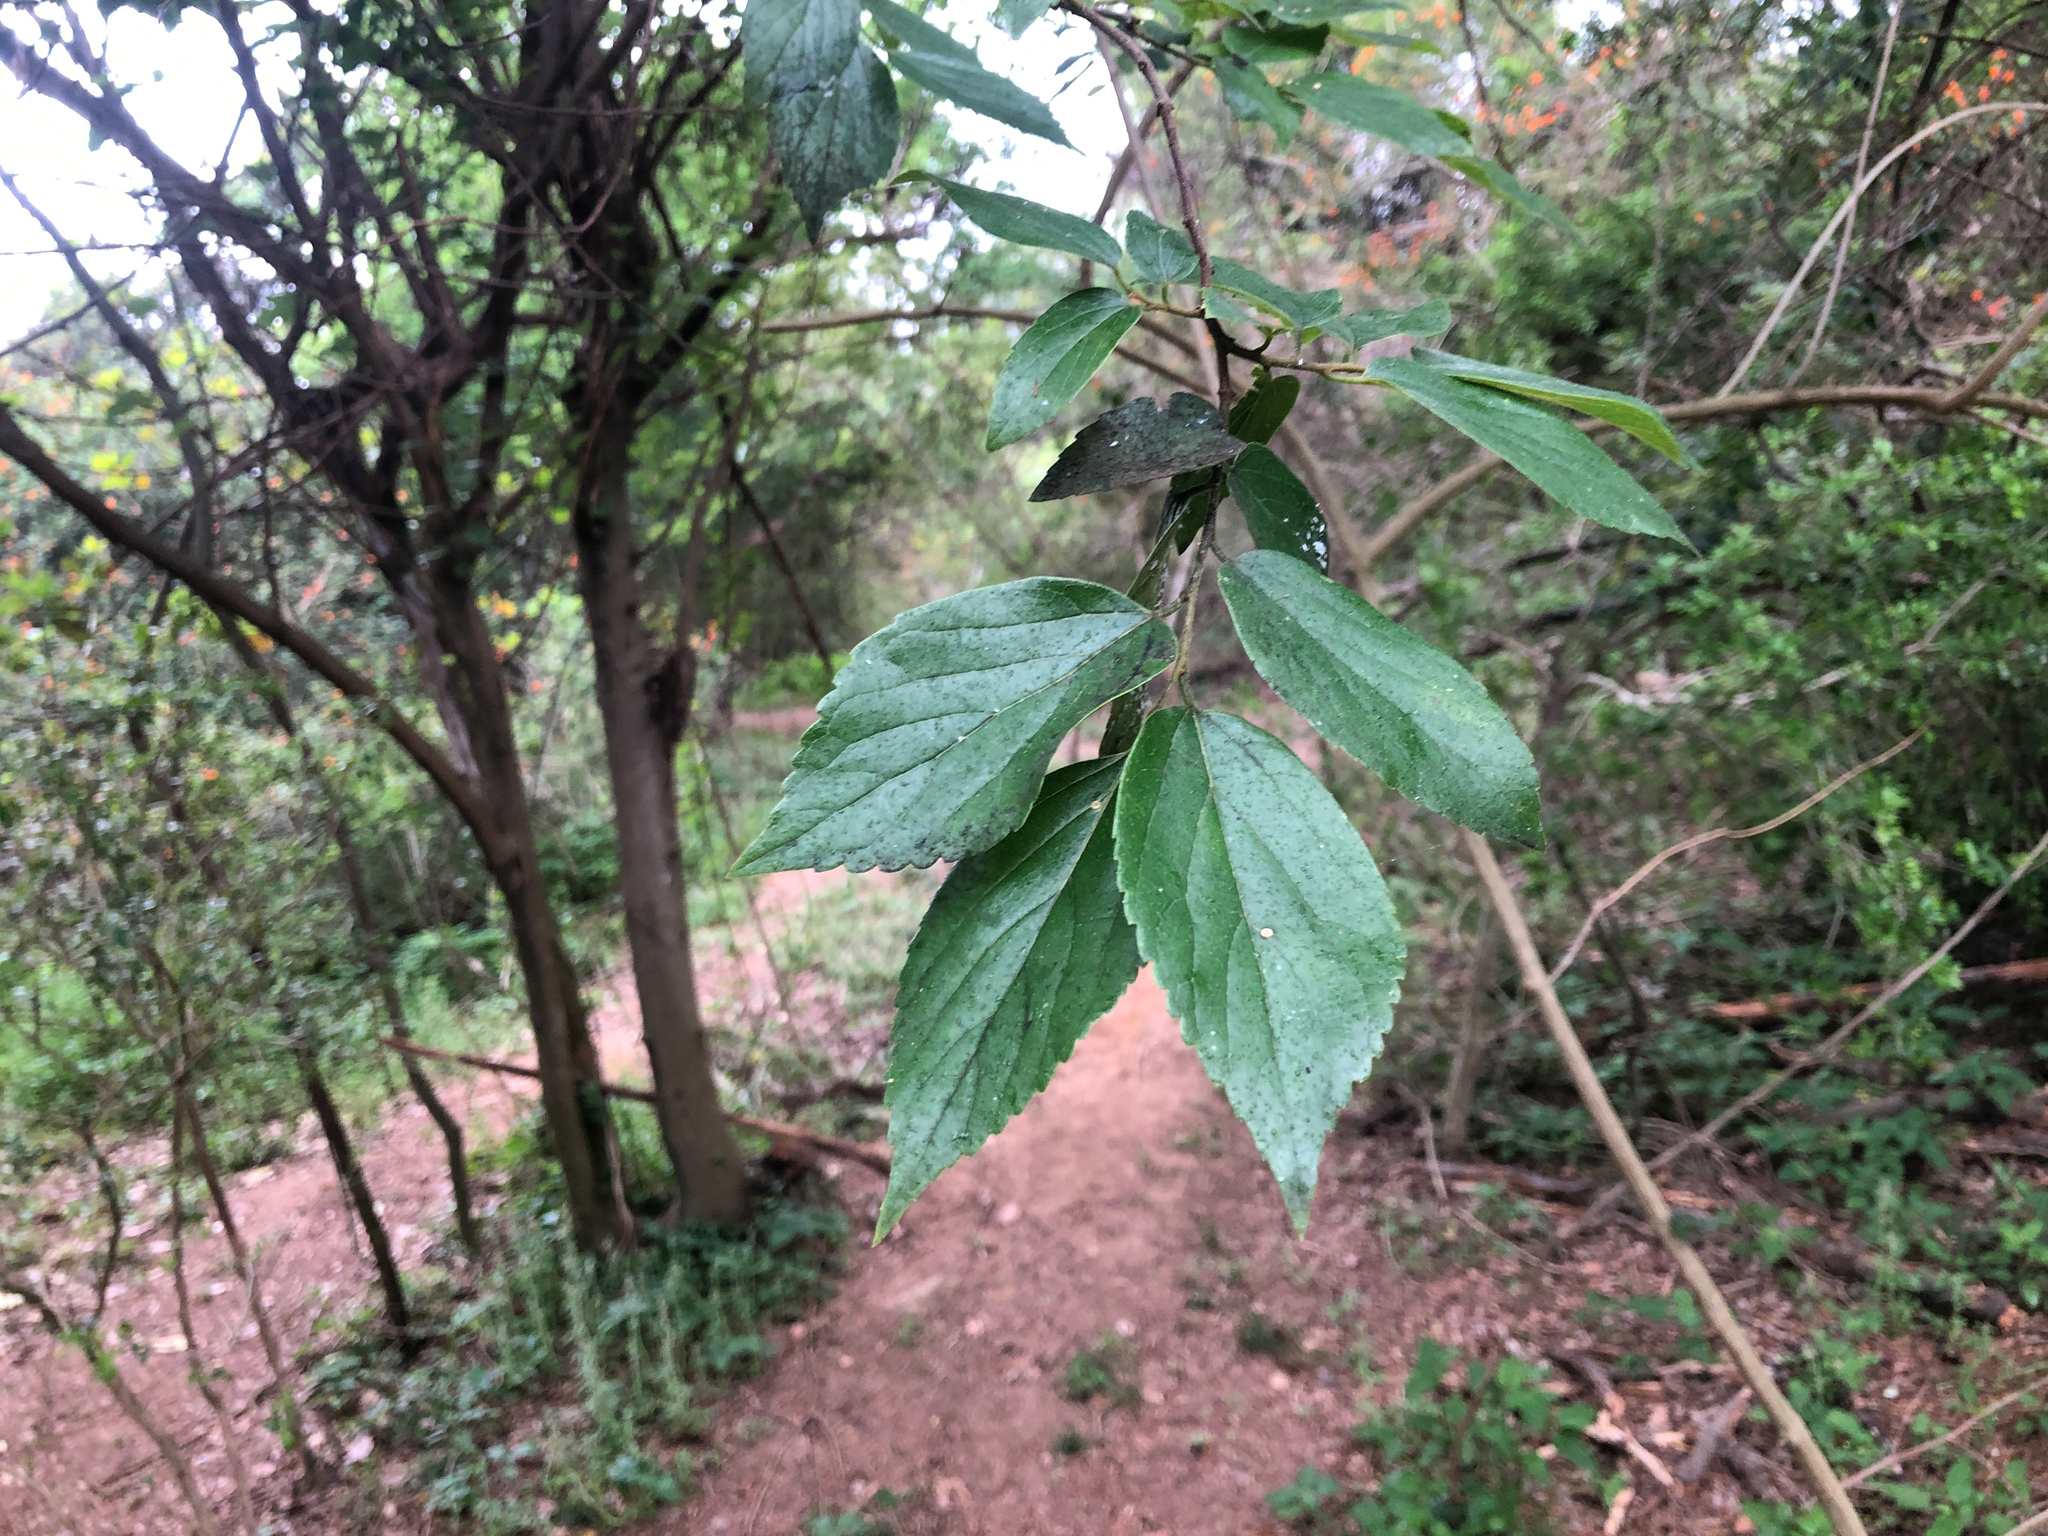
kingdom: Plantae
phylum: Tracheophyta
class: Magnoliopsida
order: Rosales
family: Cannabaceae
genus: Celtis
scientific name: Celtis sinensis
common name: Chinese hackberry
